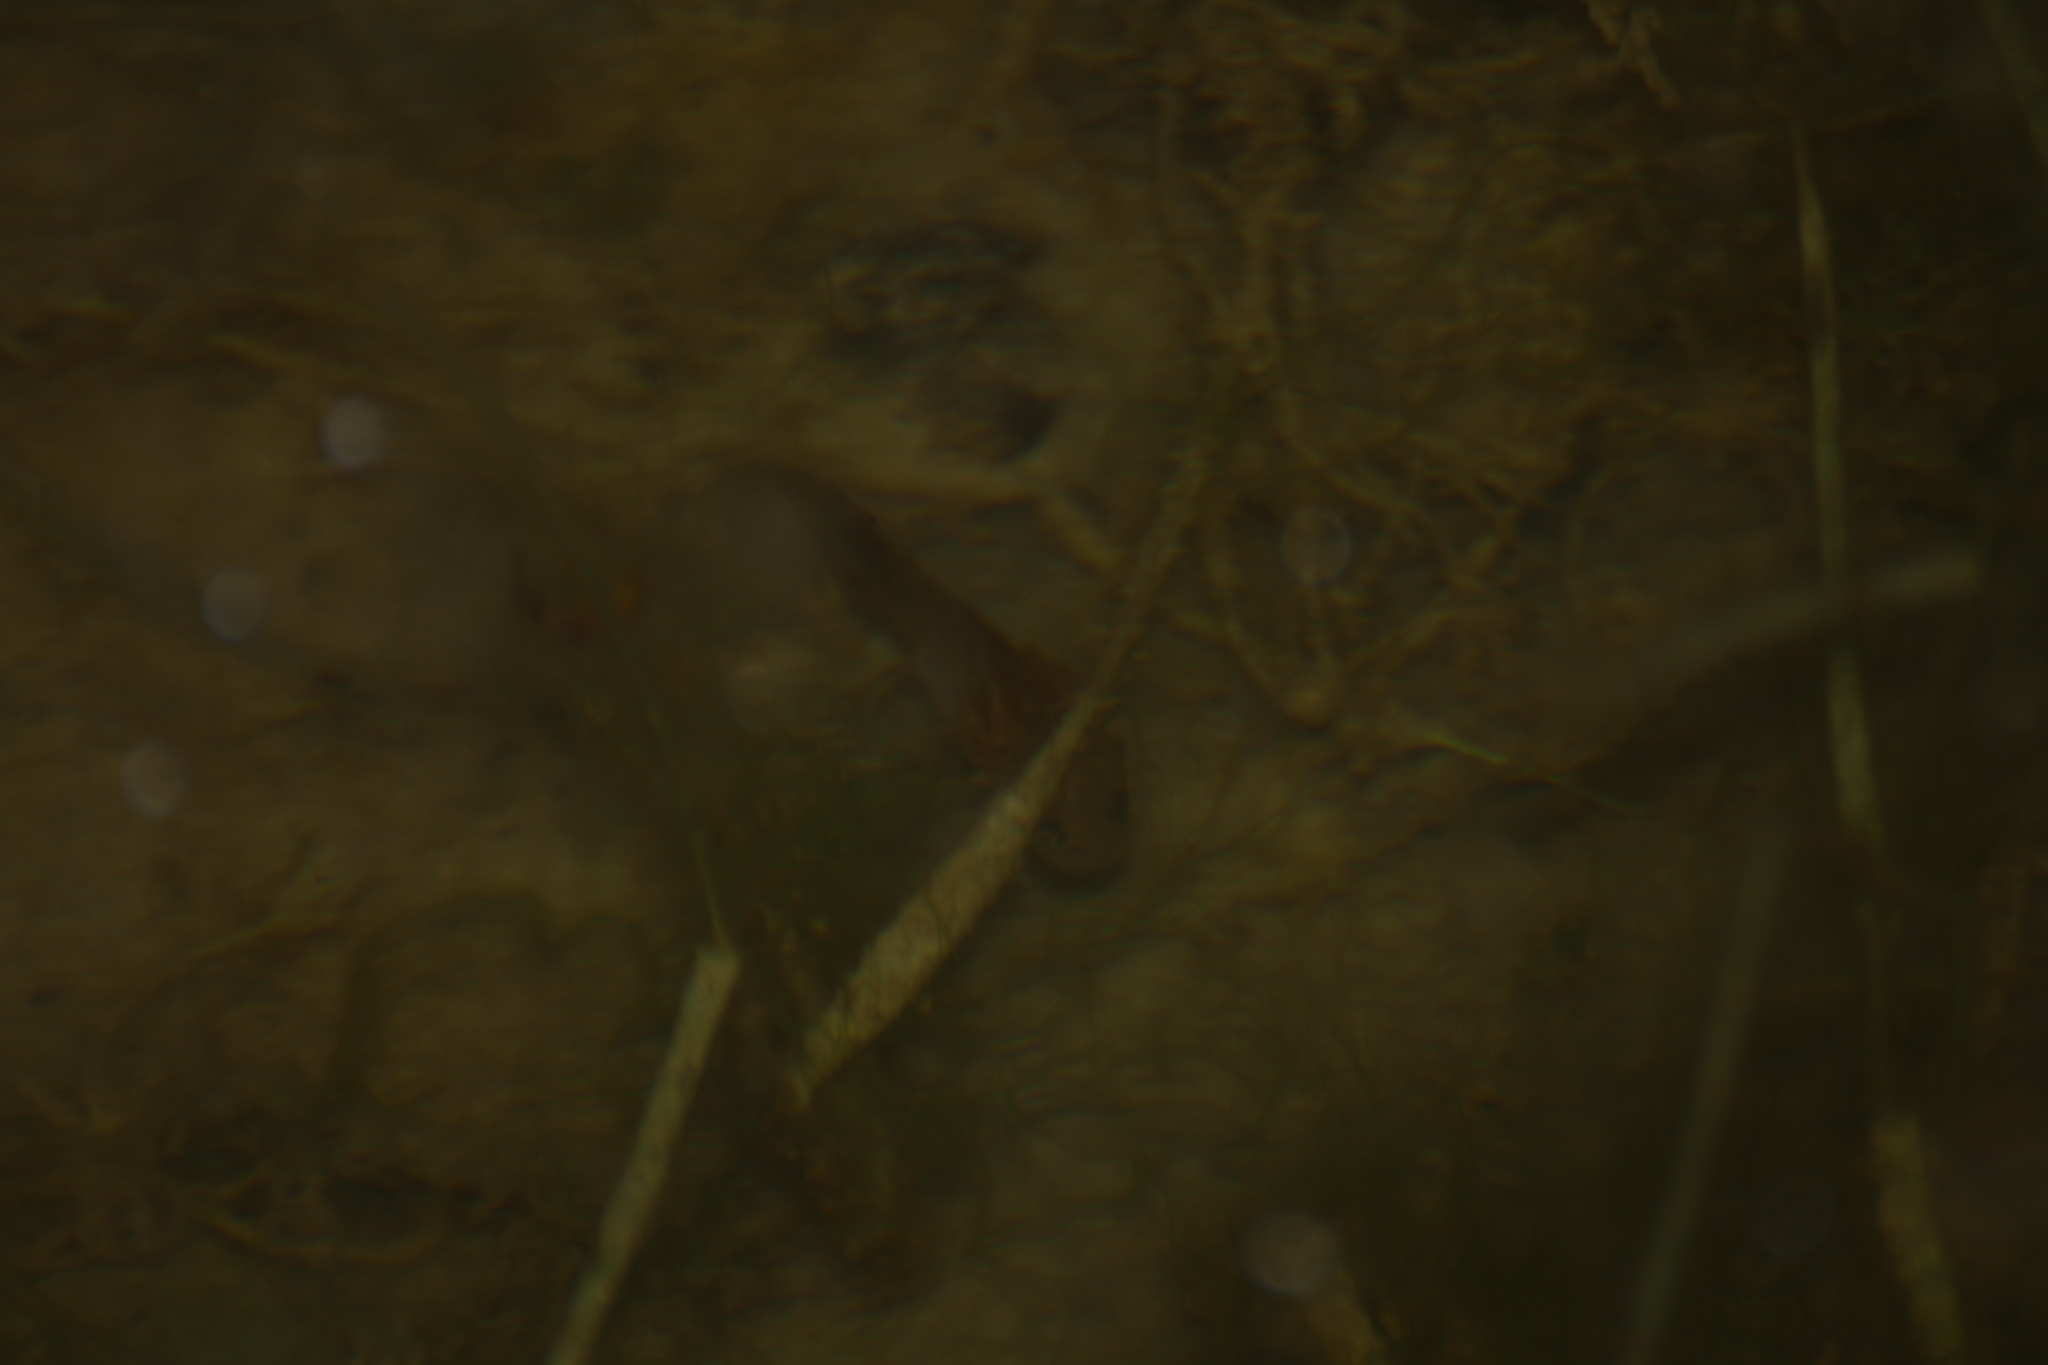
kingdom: Animalia
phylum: Chordata
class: Amphibia
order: Caudata
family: Salamandridae
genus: Triturus
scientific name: Triturus cristatus
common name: Crested newt
